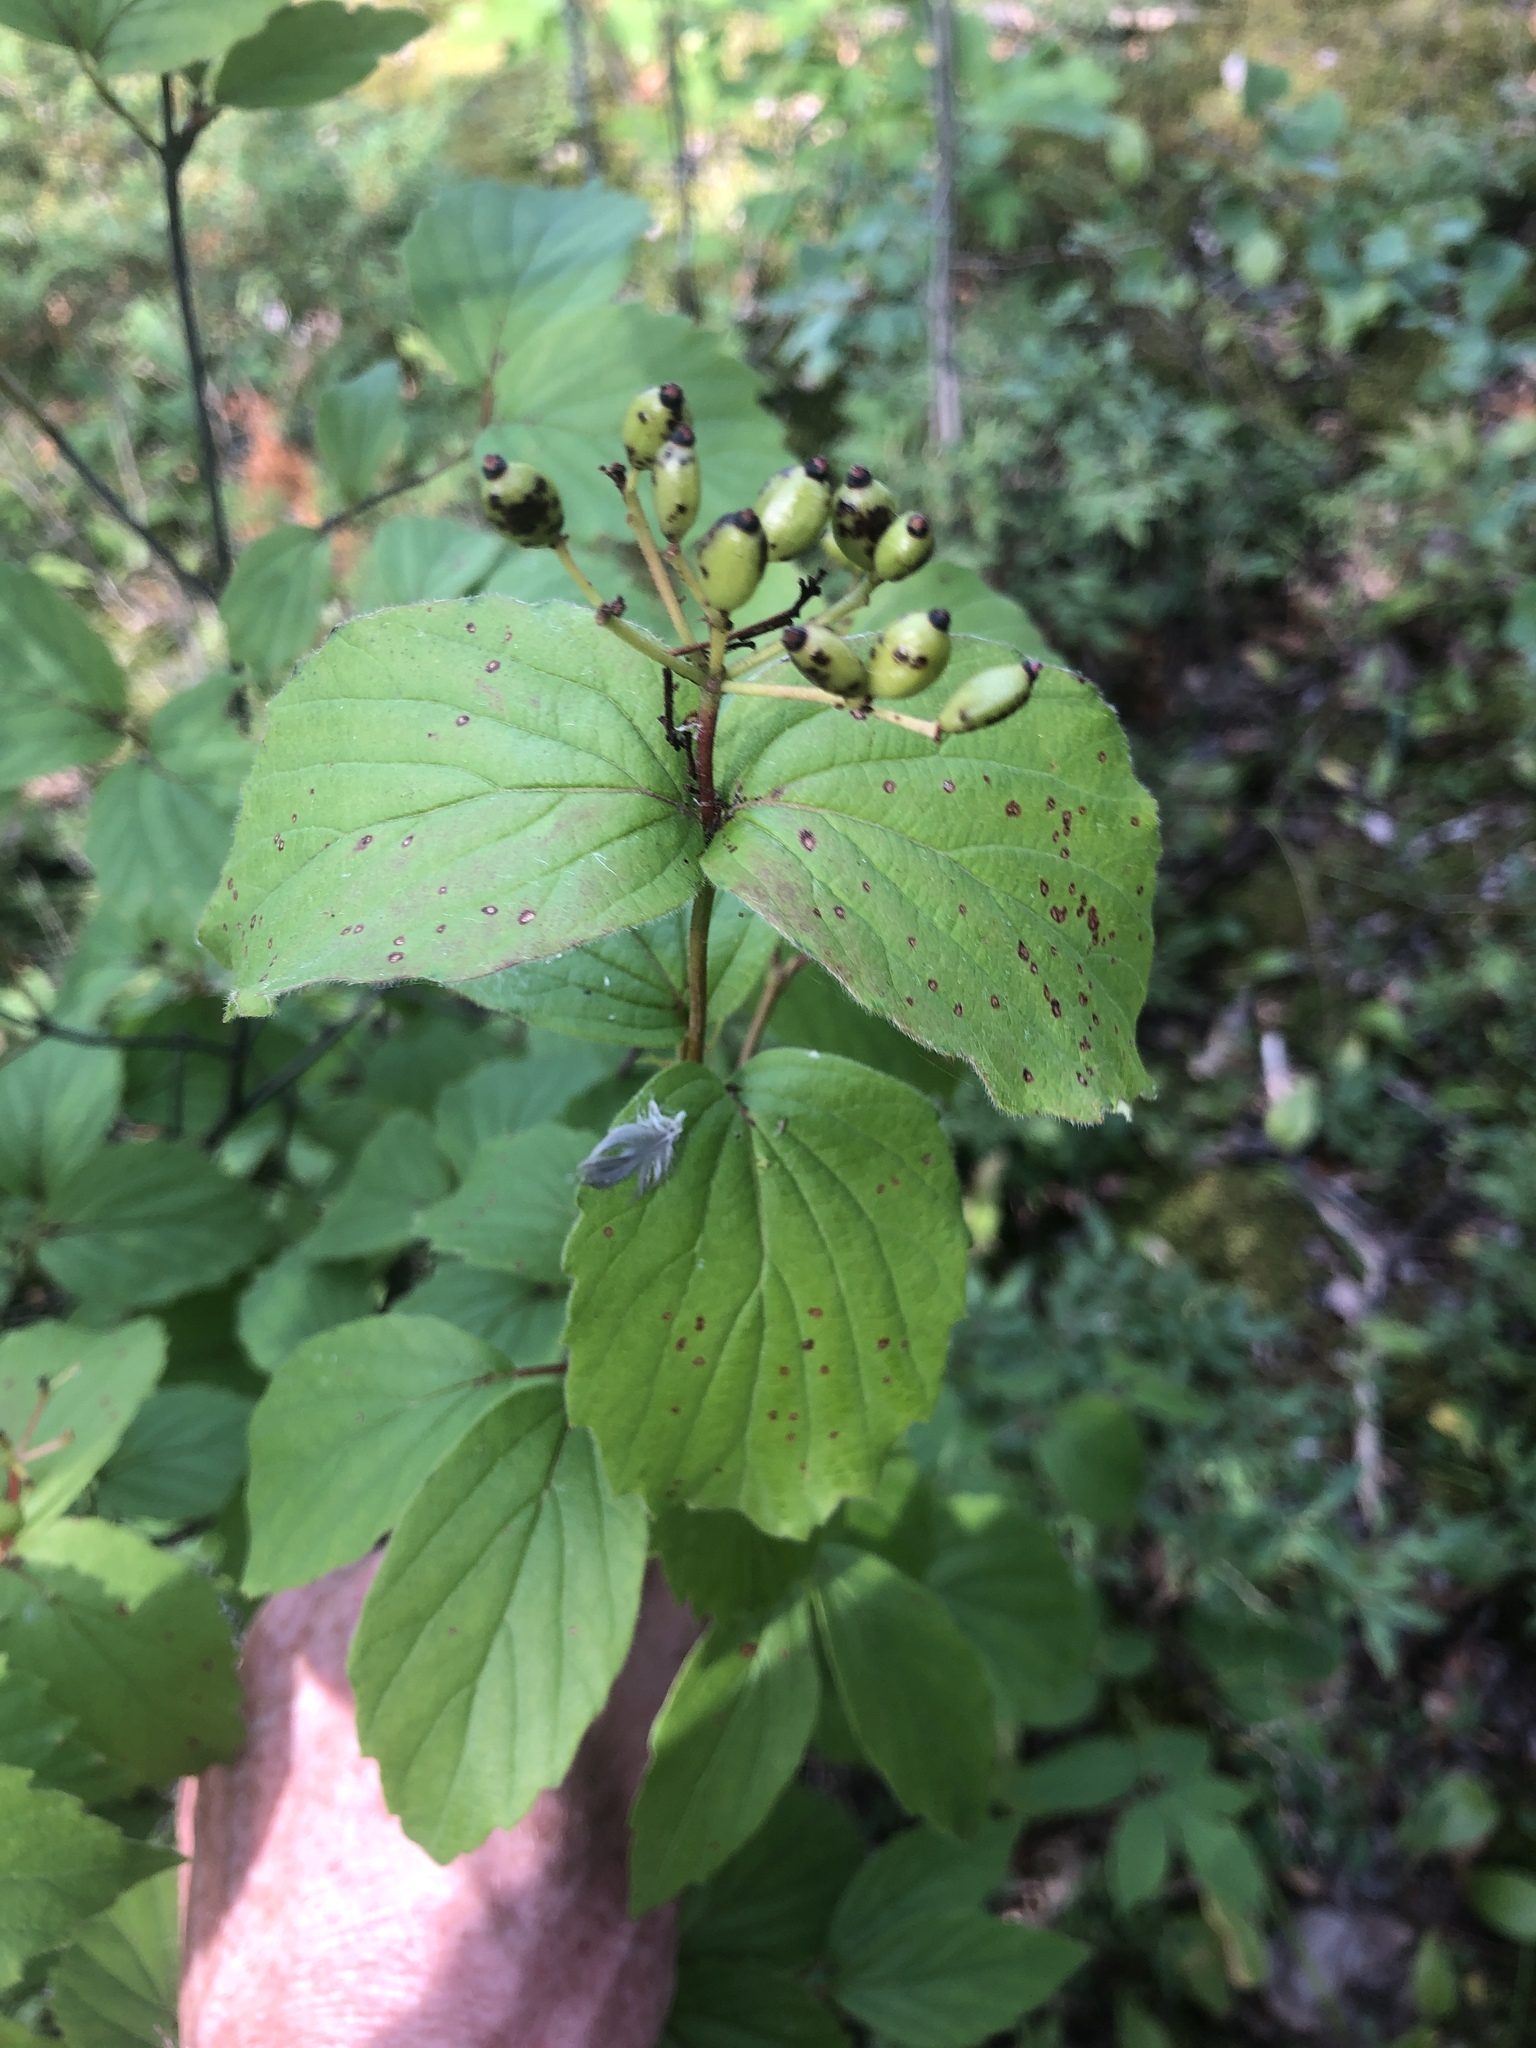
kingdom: Plantae
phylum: Tracheophyta
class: Magnoliopsida
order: Dipsacales
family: Viburnaceae
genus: Viburnum
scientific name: Viburnum rafinesqueanum
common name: Downy arrow-wood
